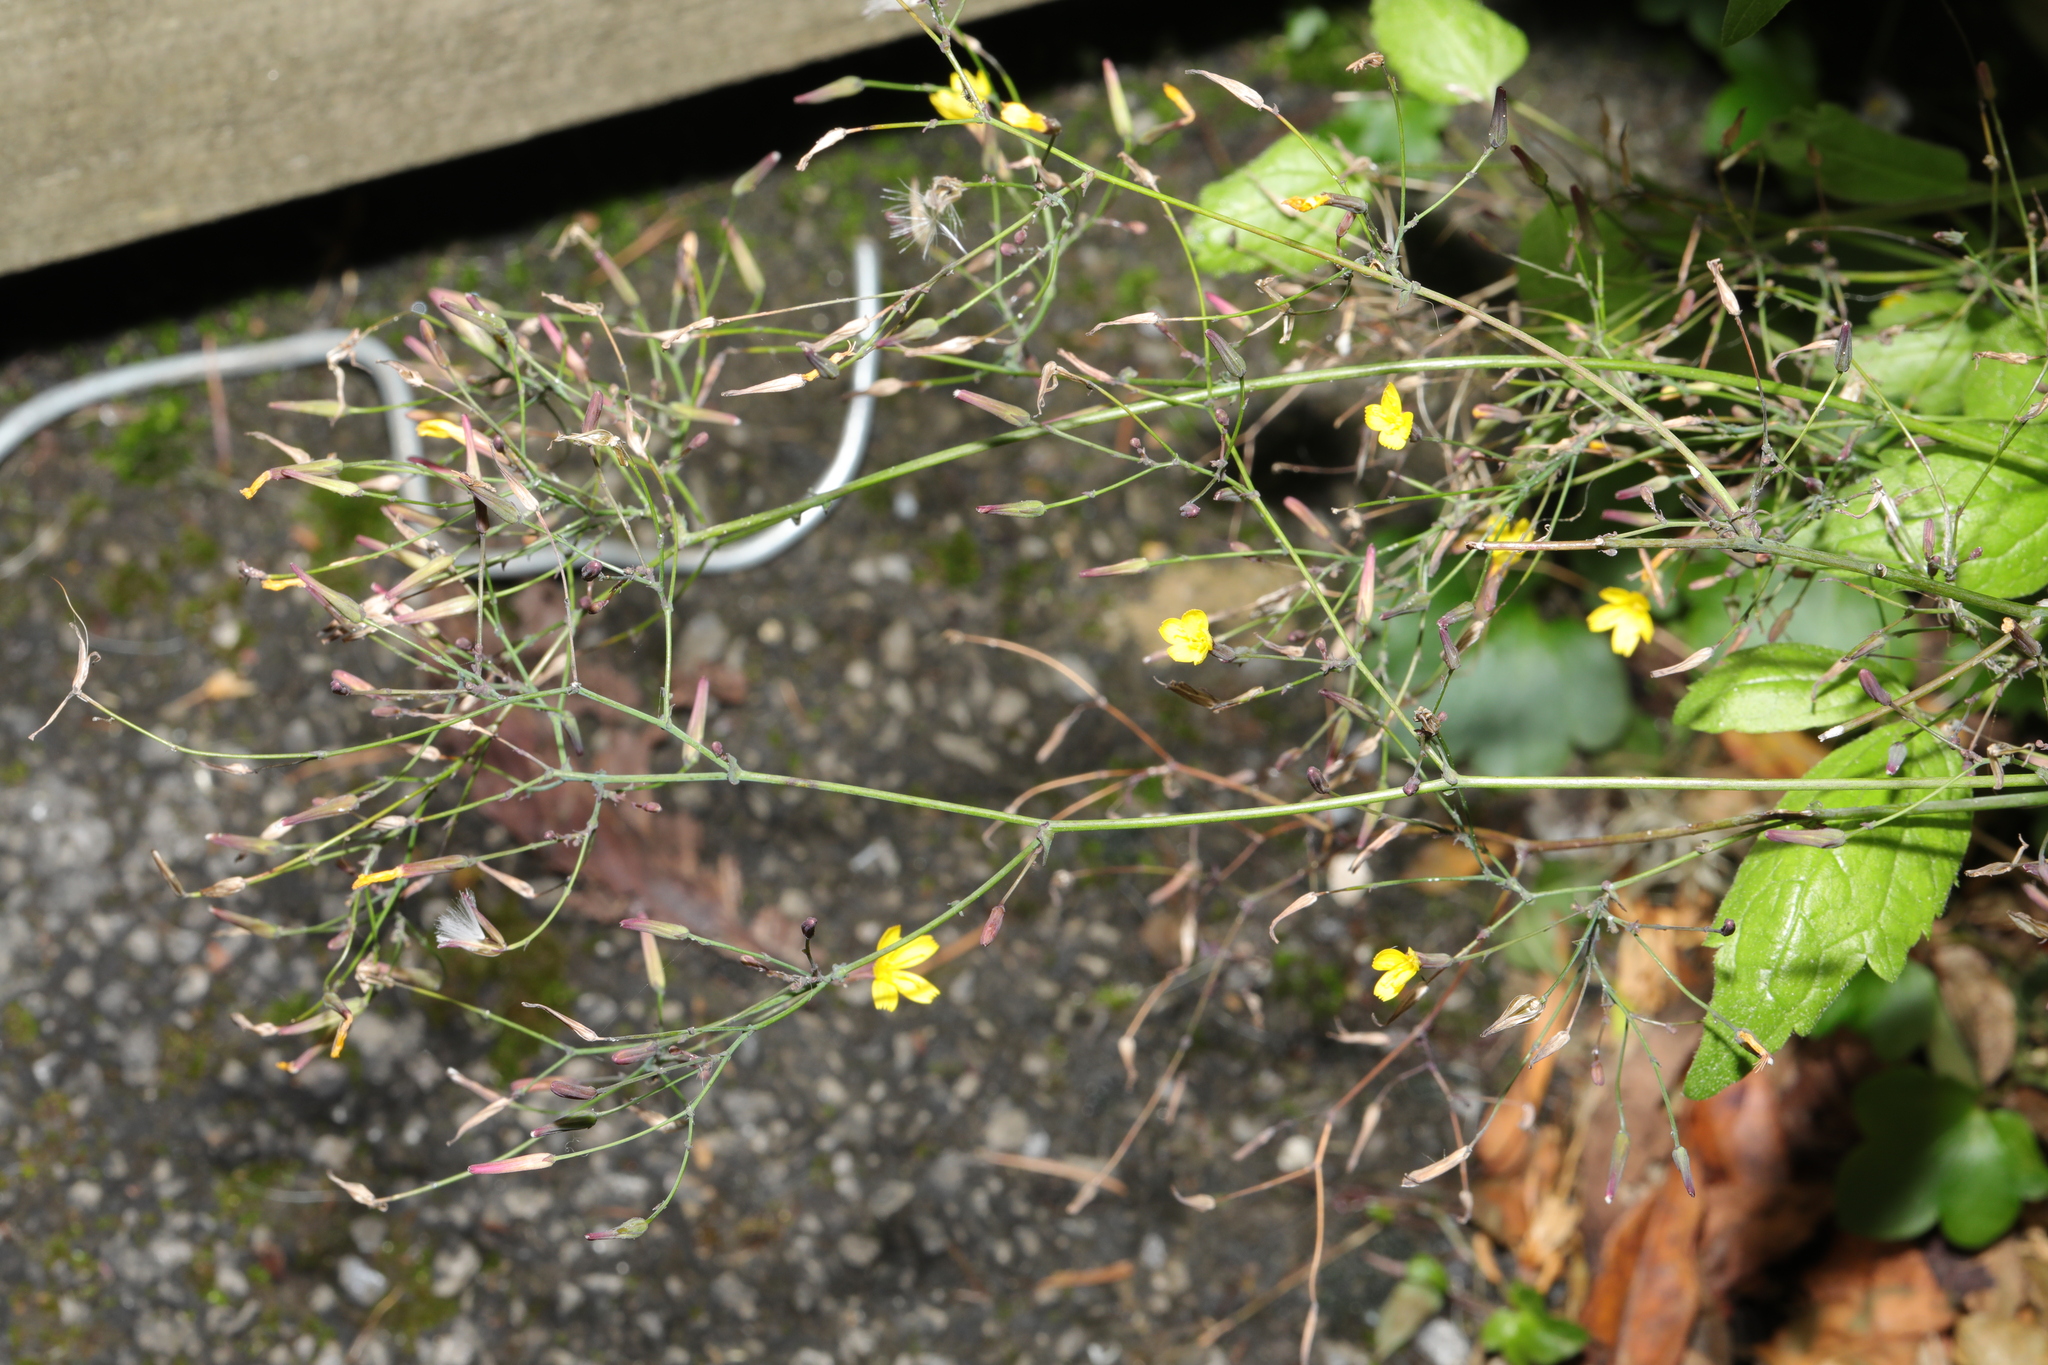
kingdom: Plantae
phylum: Tracheophyta
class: Magnoliopsida
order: Asterales
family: Asteraceae
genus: Mycelis
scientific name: Mycelis muralis
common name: Wall lettuce
